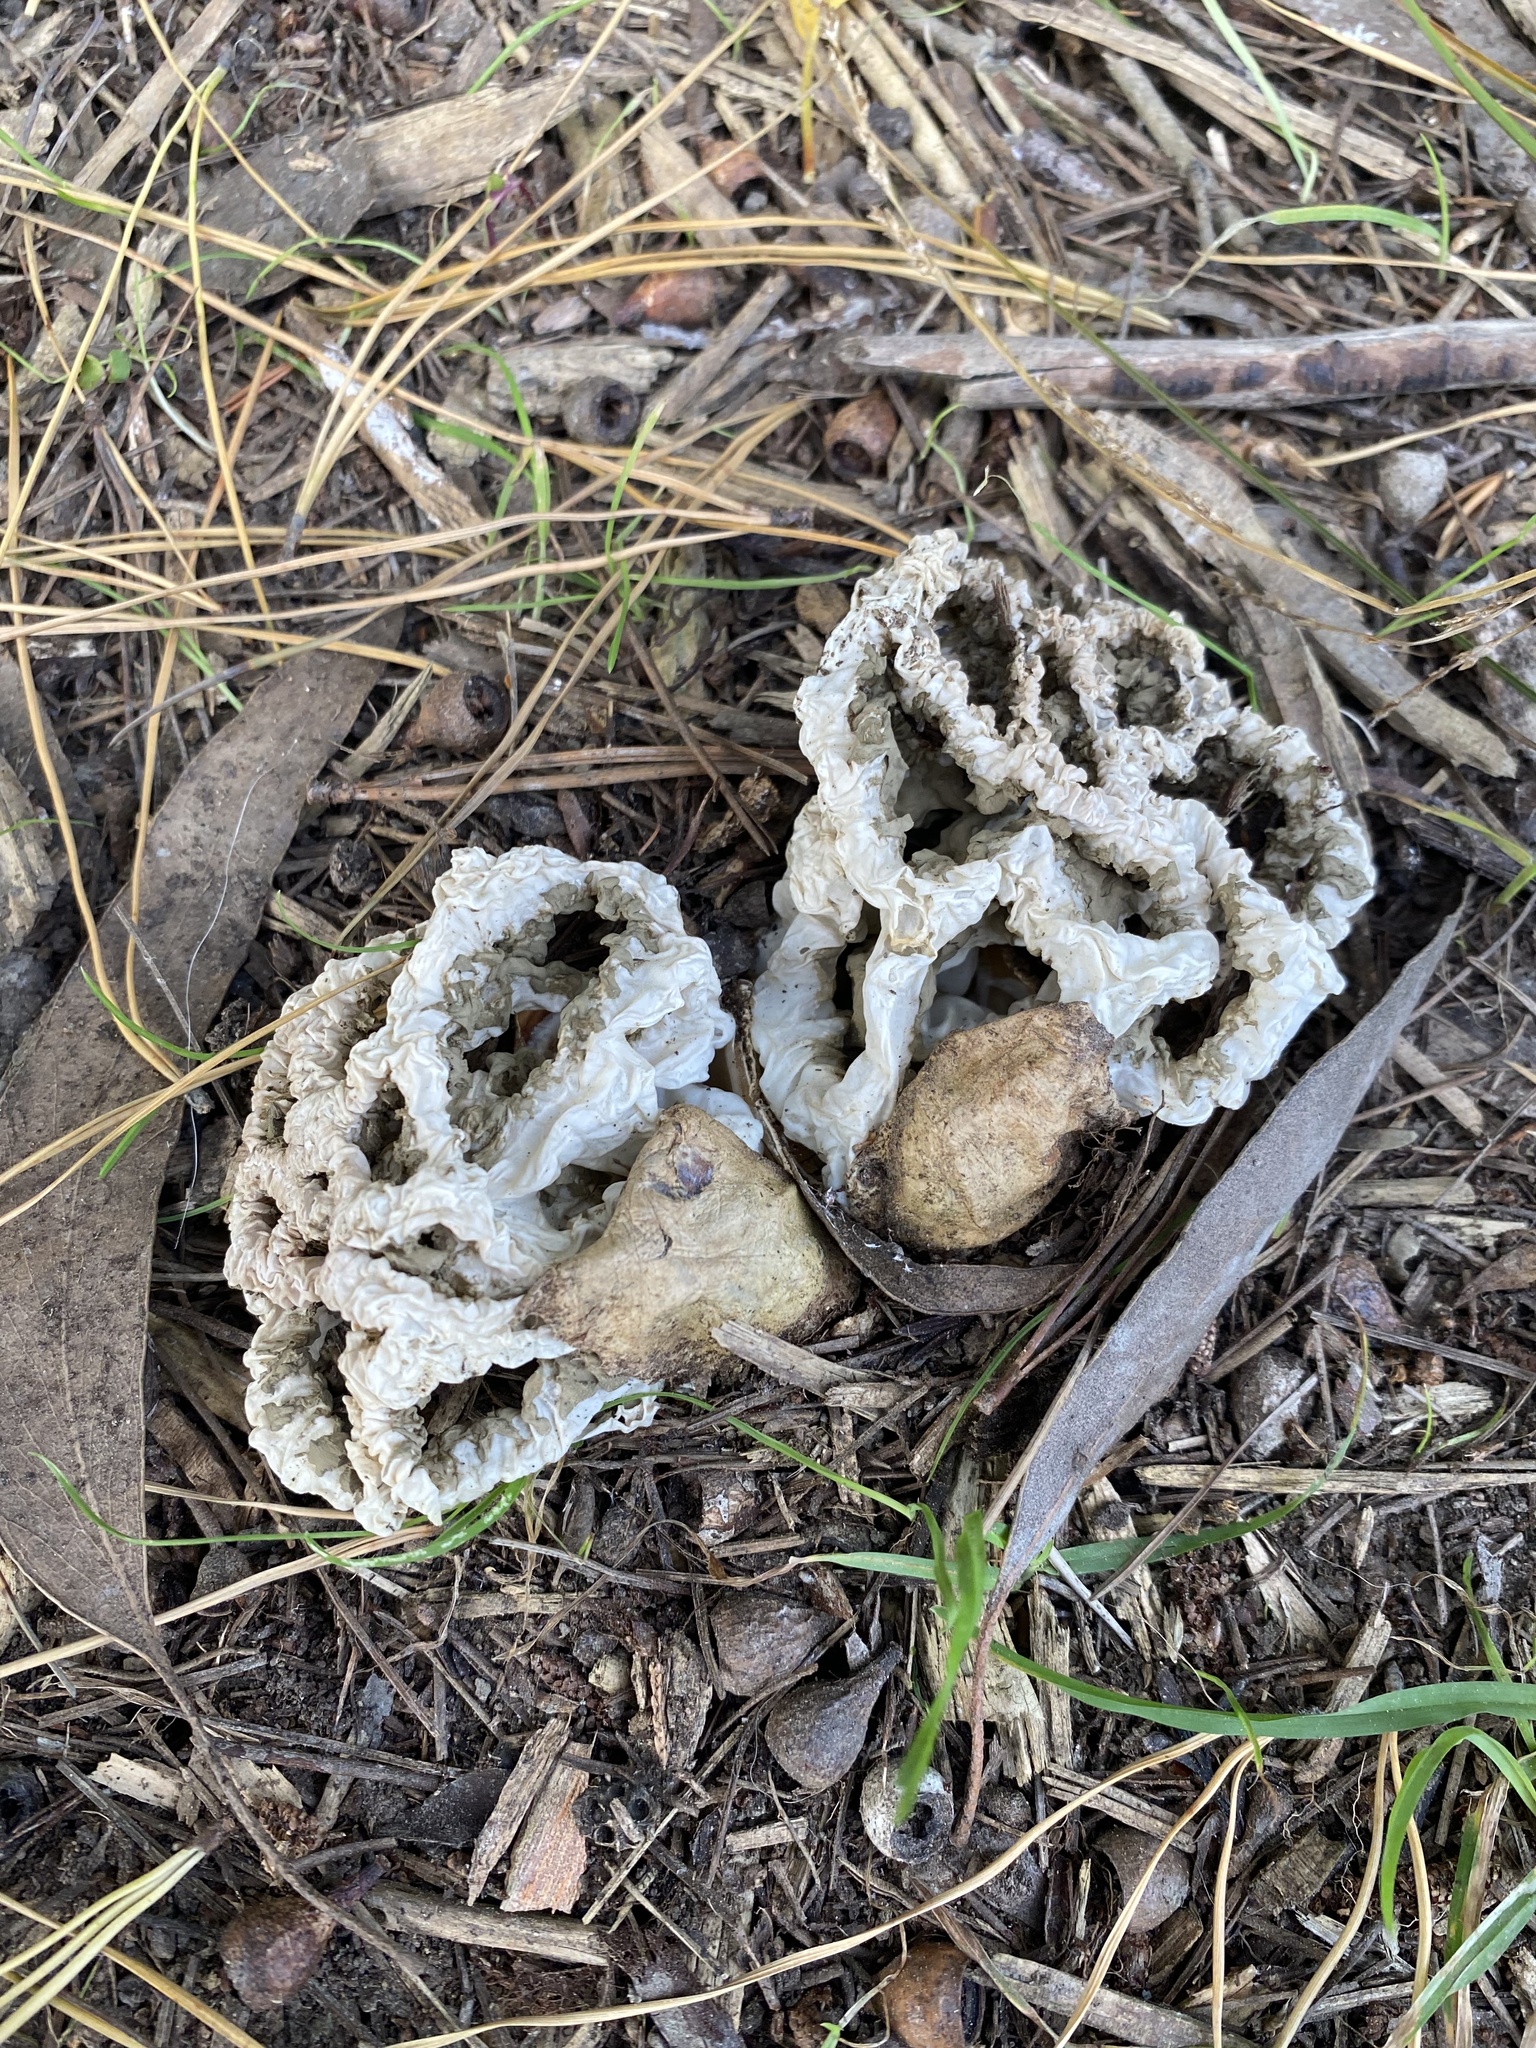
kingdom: Fungi
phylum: Basidiomycota
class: Agaricomycetes
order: Phallales
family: Phallaceae
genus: Ileodictyon
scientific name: Ileodictyon cibarium
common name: Basket fungus
